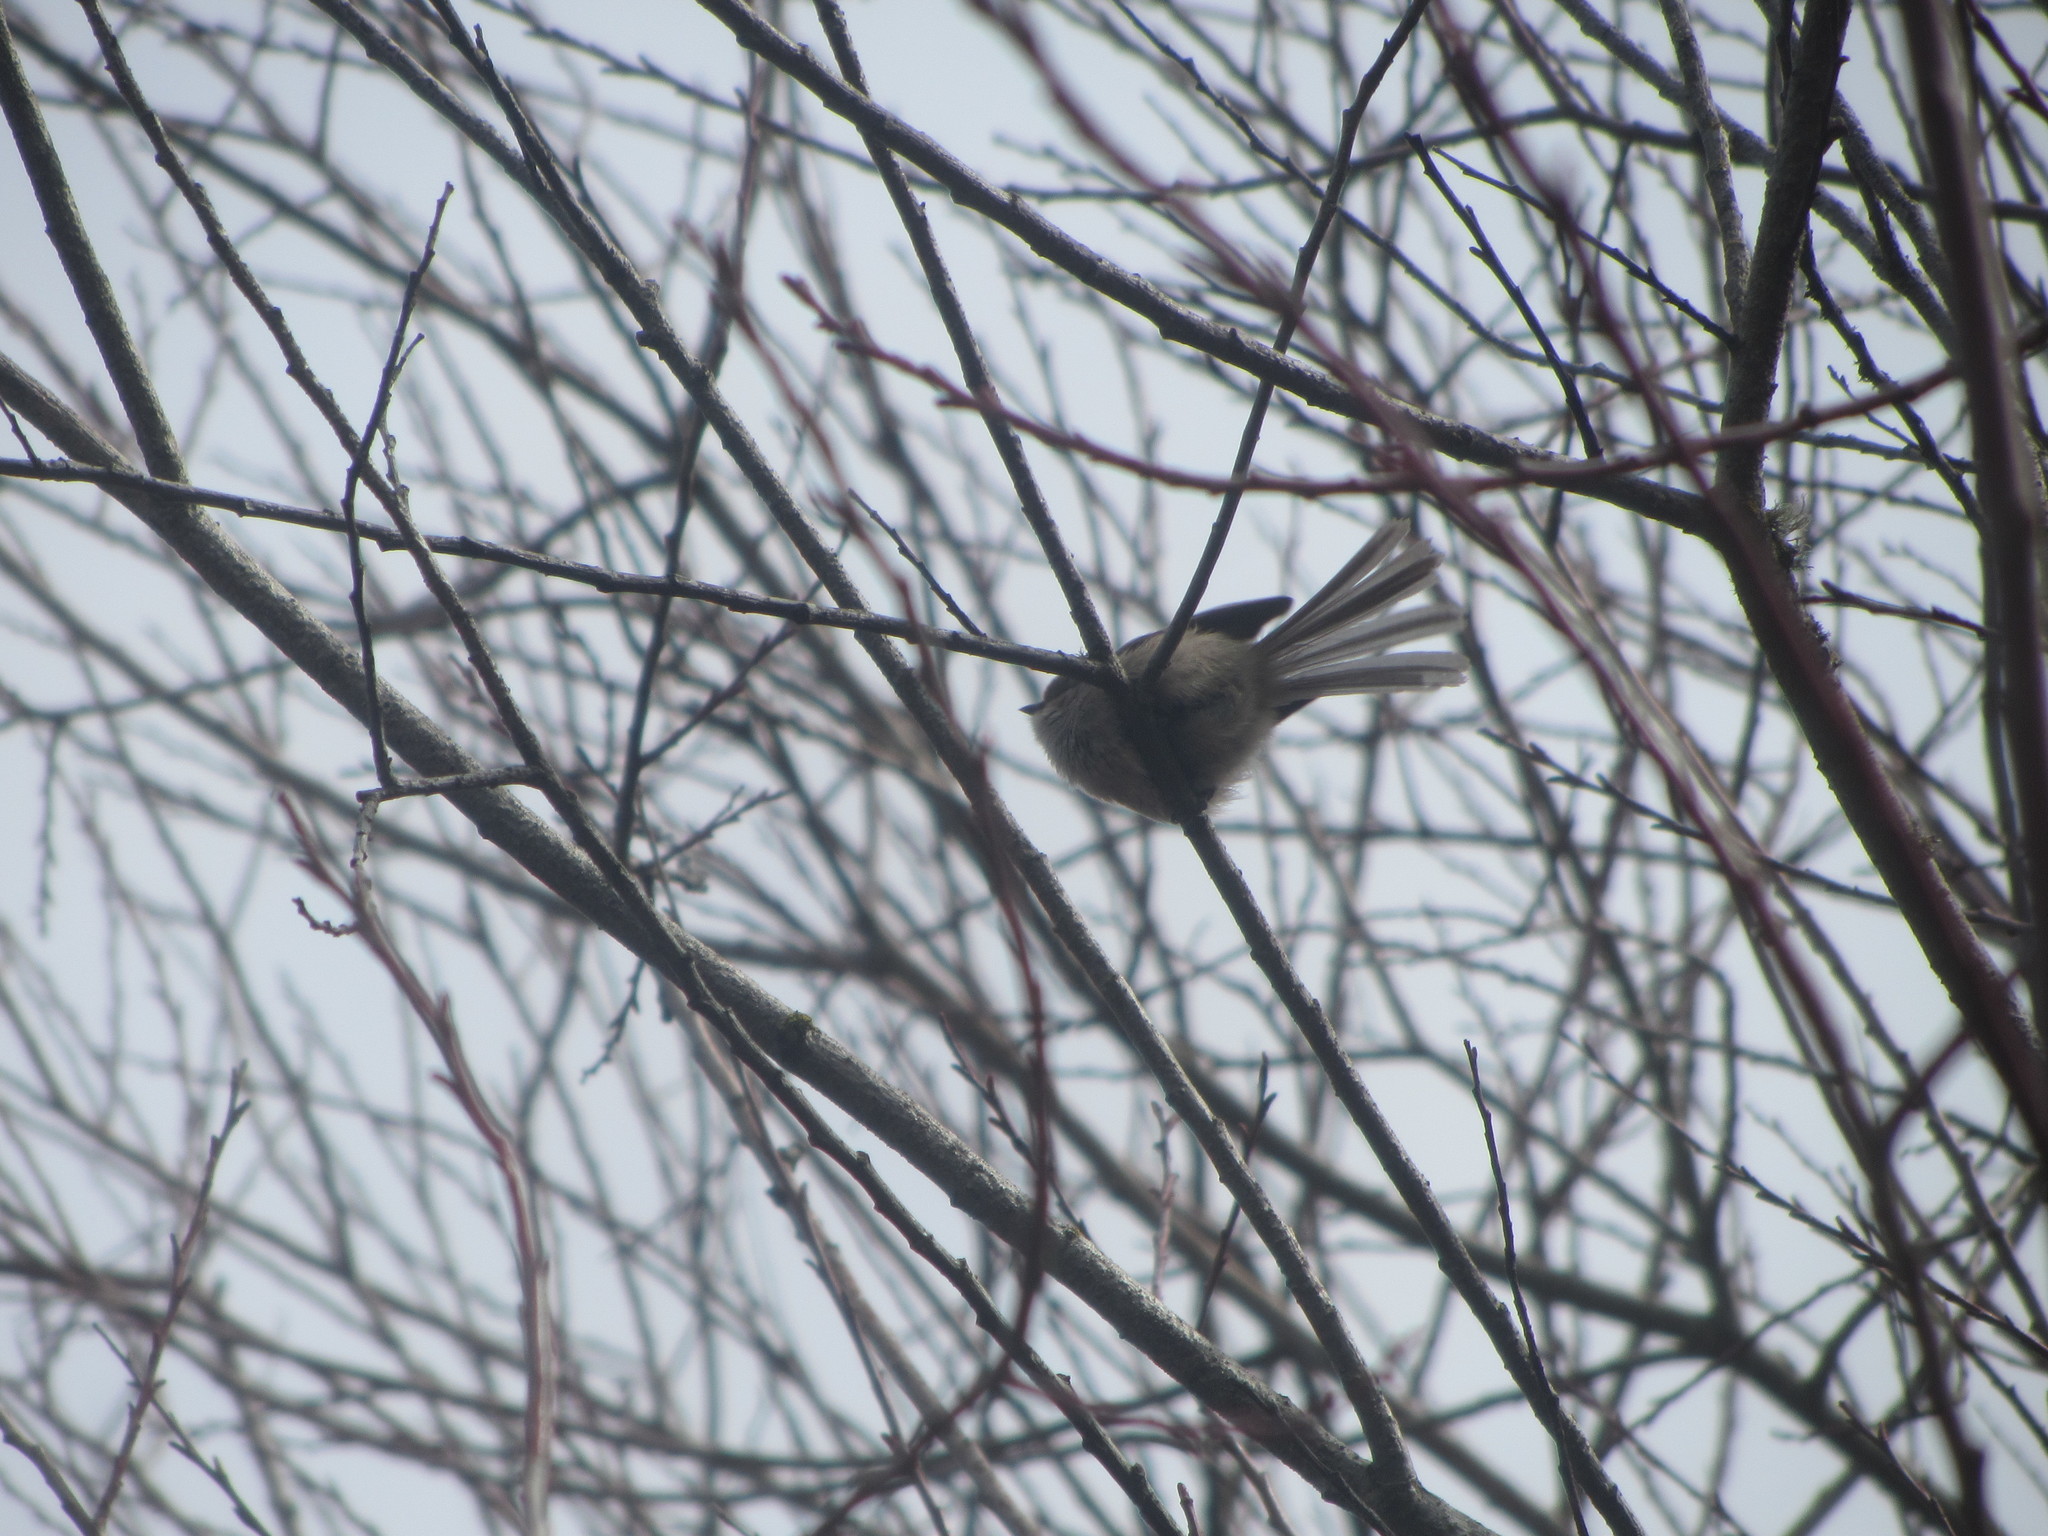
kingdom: Animalia
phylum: Chordata
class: Aves
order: Passeriformes
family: Aegithalidae
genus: Psaltriparus
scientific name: Psaltriparus minimus
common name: American bushtit
